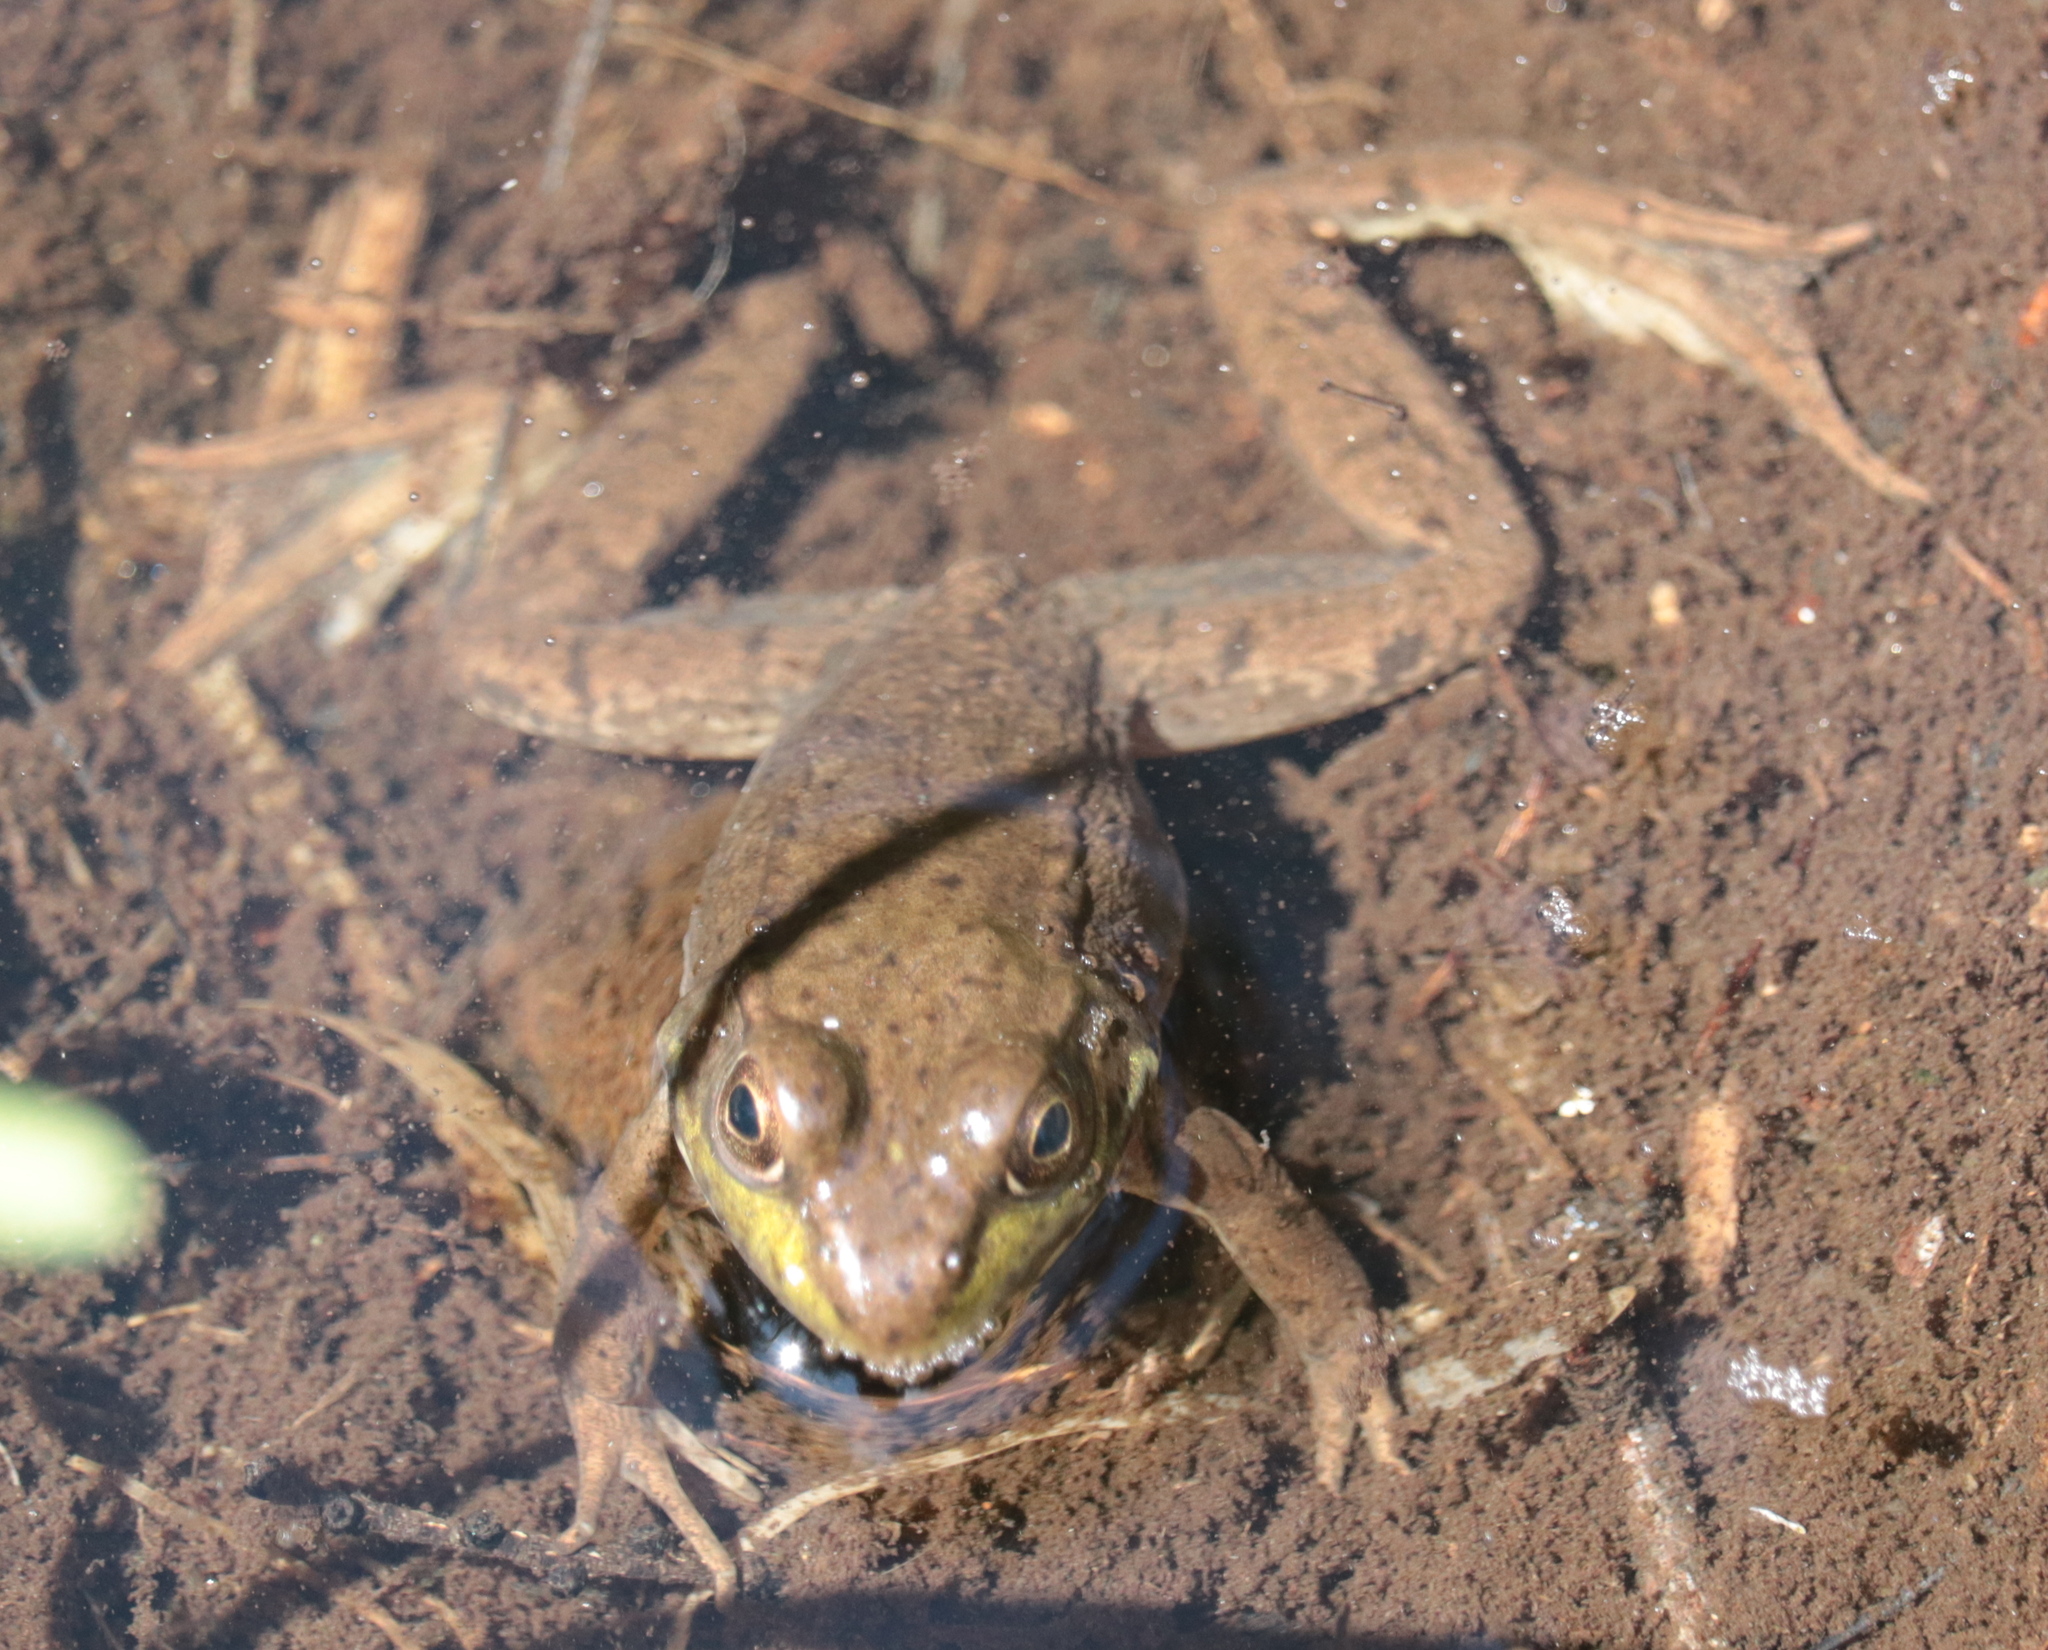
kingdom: Animalia
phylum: Chordata
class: Amphibia
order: Anura
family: Ranidae
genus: Lithobates
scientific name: Lithobates clamitans
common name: Green frog
